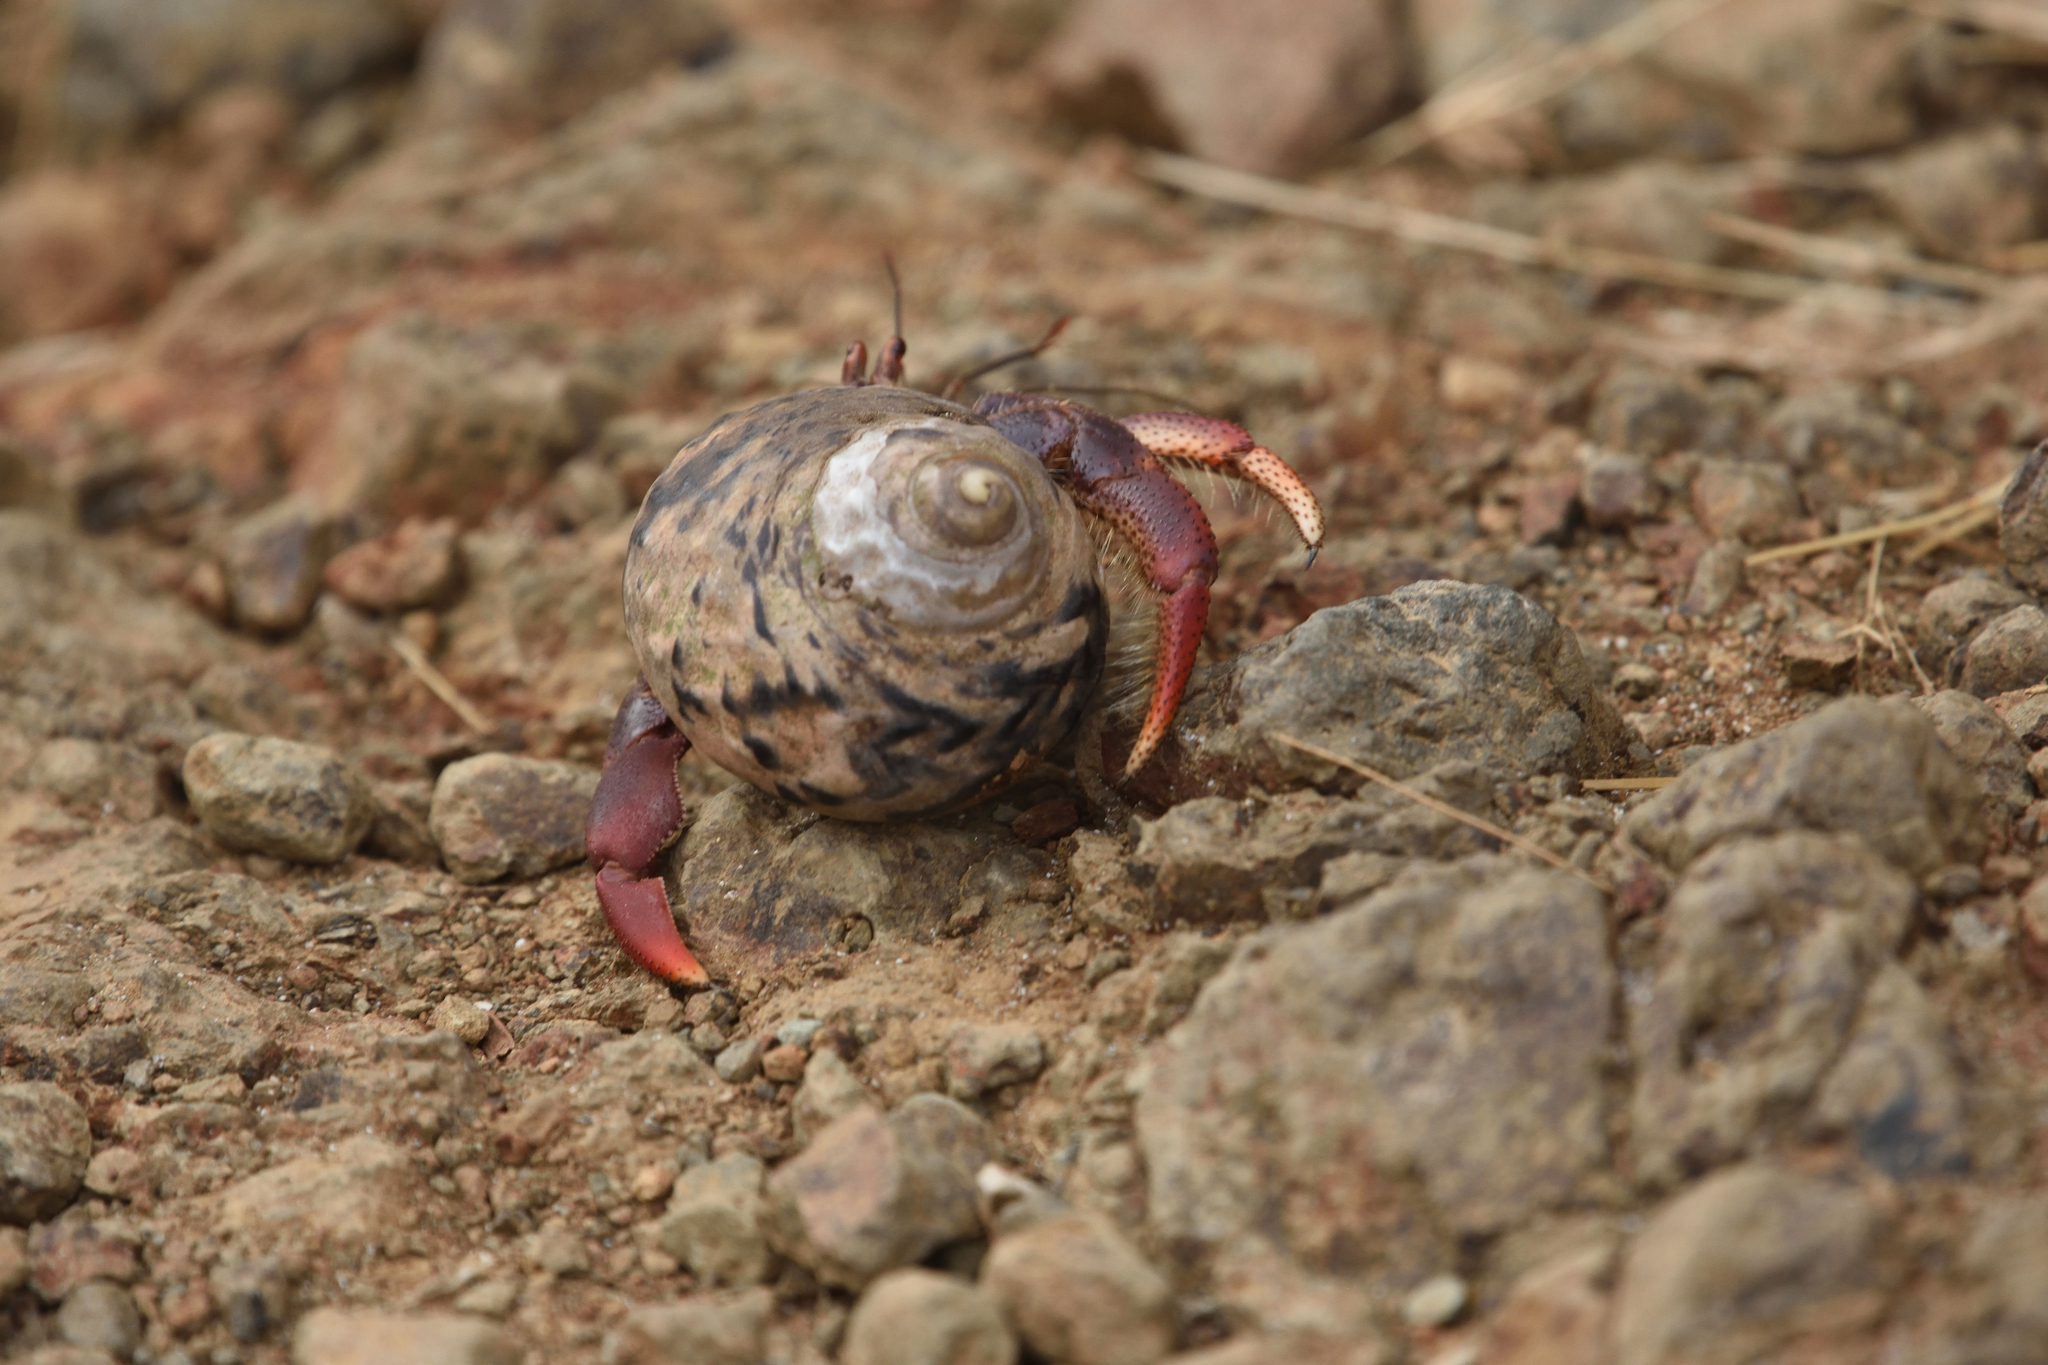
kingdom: Animalia
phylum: Arthropoda
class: Malacostraca
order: Decapoda
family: Coenobitidae
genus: Coenobita
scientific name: Coenobita clypeatus
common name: Caribbean hermit crab
